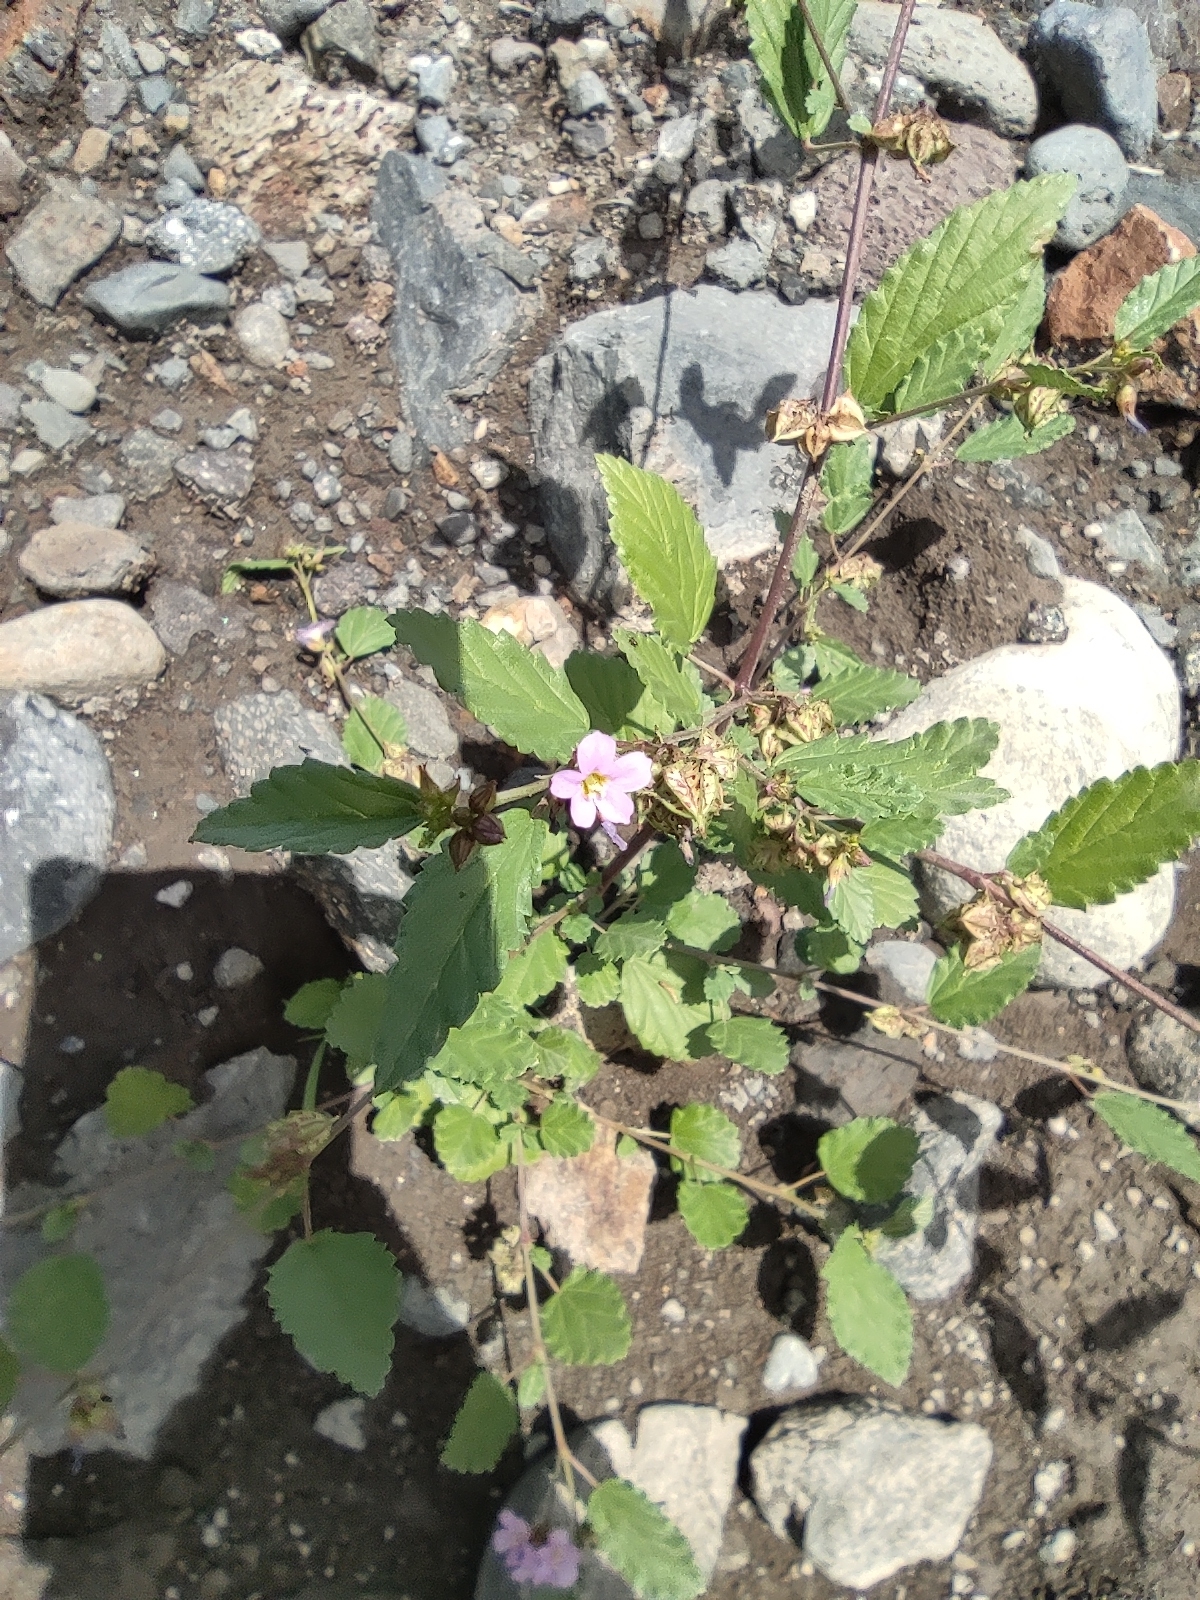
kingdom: Plantae
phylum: Tracheophyta
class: Magnoliopsida
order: Malvales
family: Malvaceae
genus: Melochia
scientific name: Melochia pyramidata
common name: Pyramidflower
